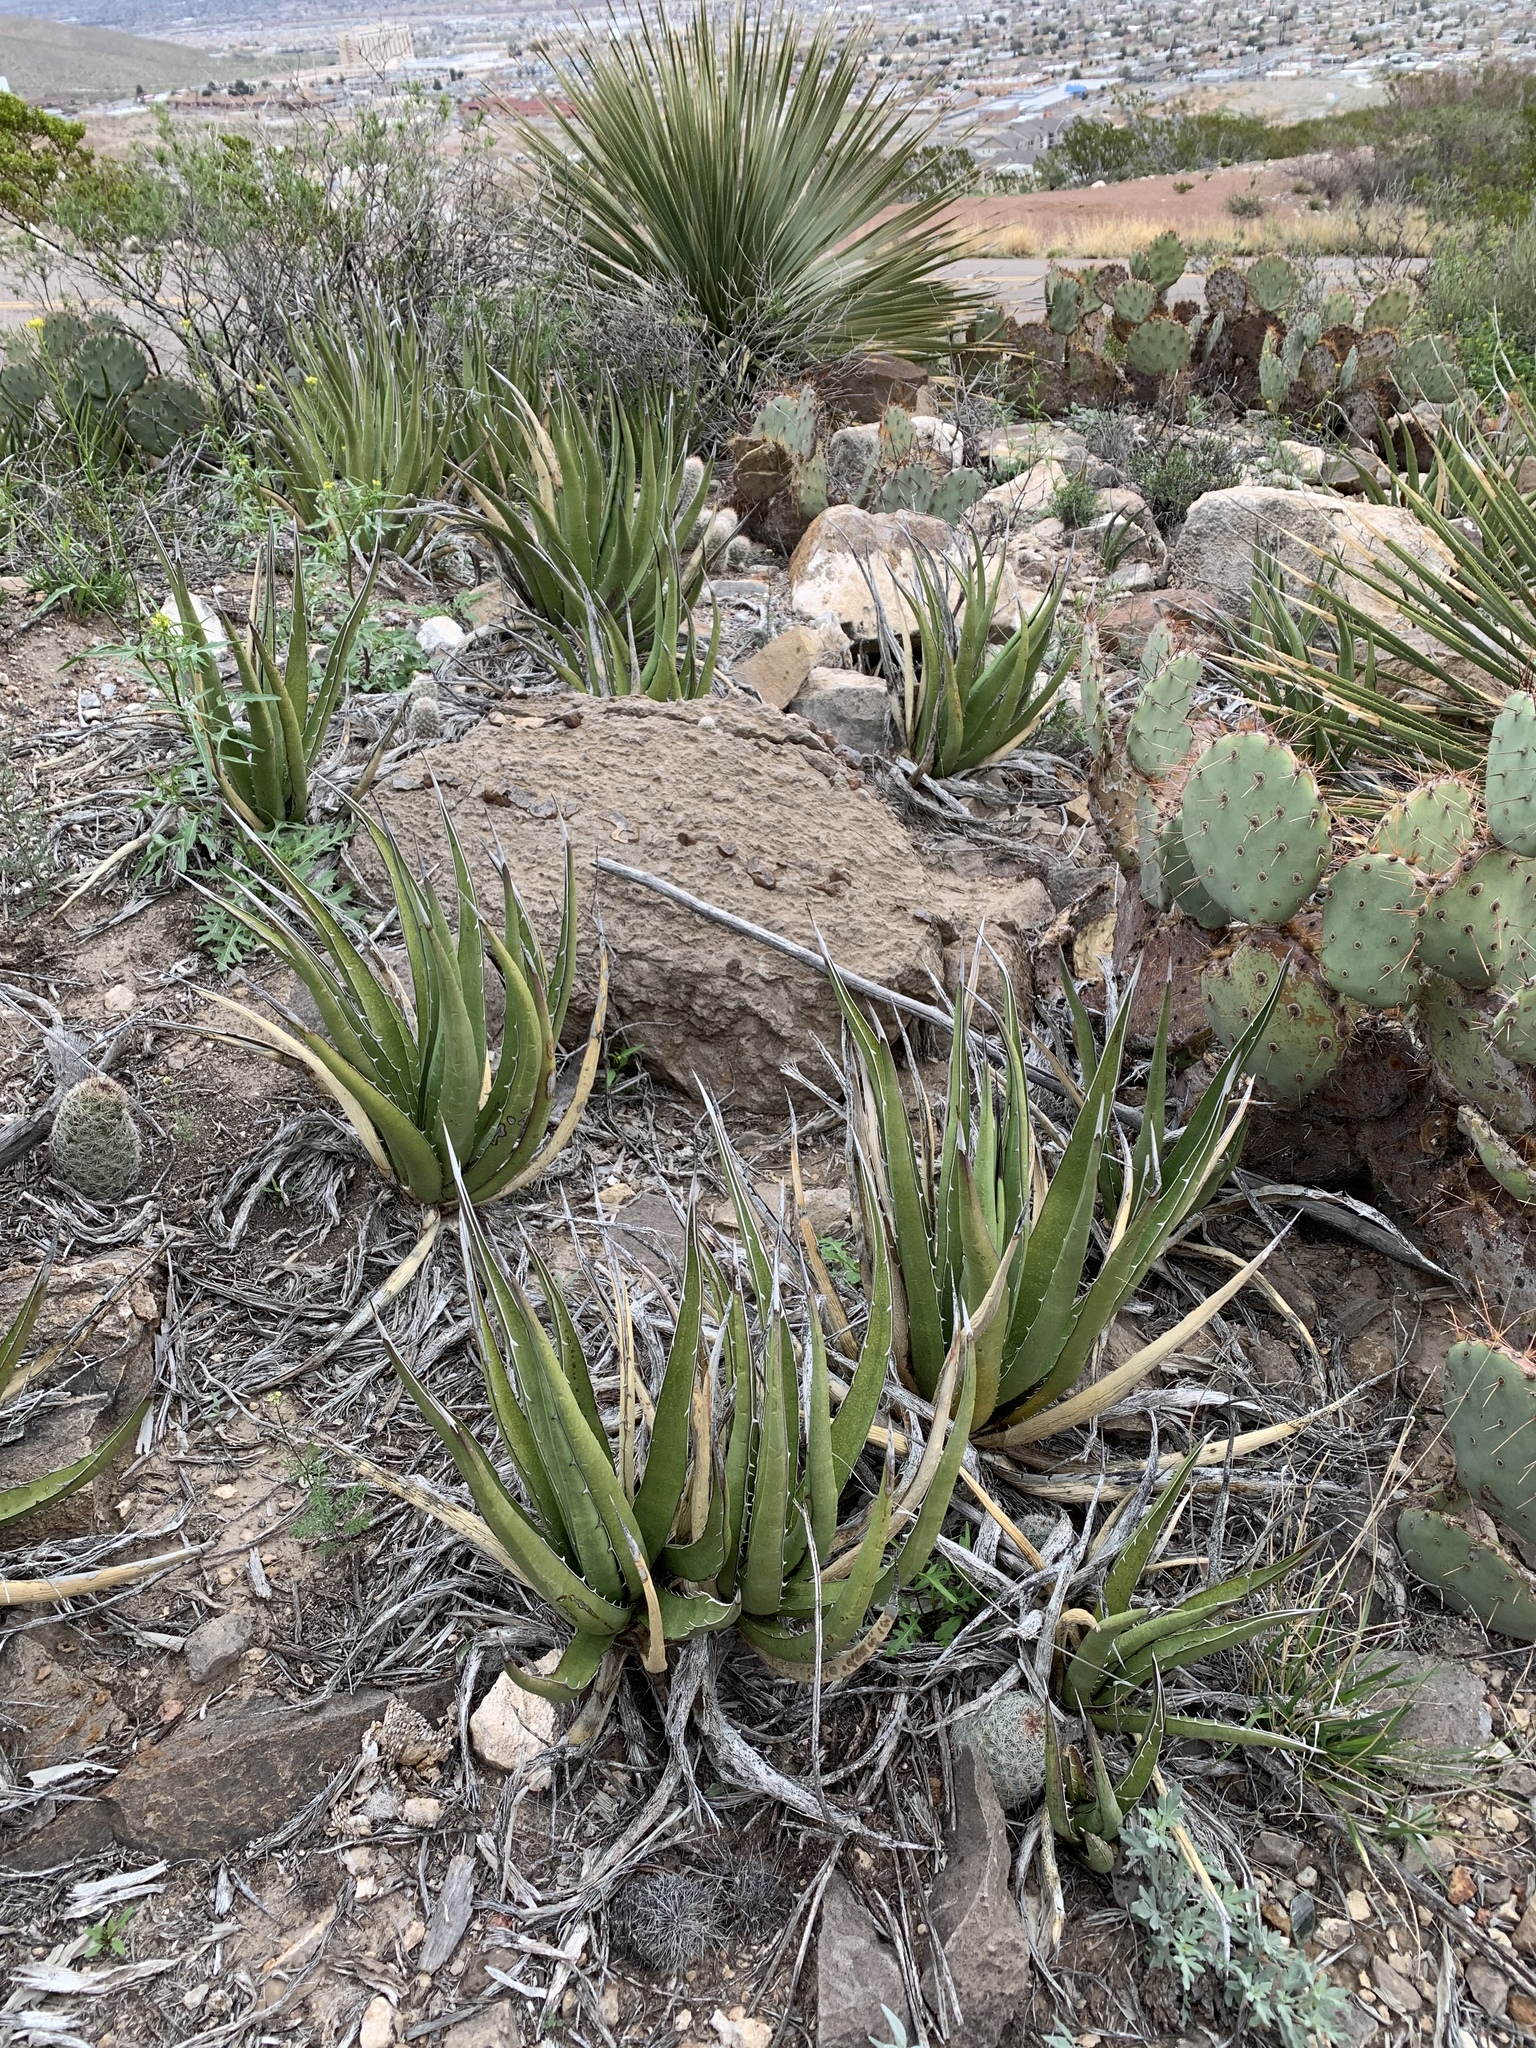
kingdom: Plantae
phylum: Tracheophyta
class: Liliopsida
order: Asparagales
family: Asparagaceae
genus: Agave
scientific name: Agave lechuguilla
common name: Lecheguilla agave
